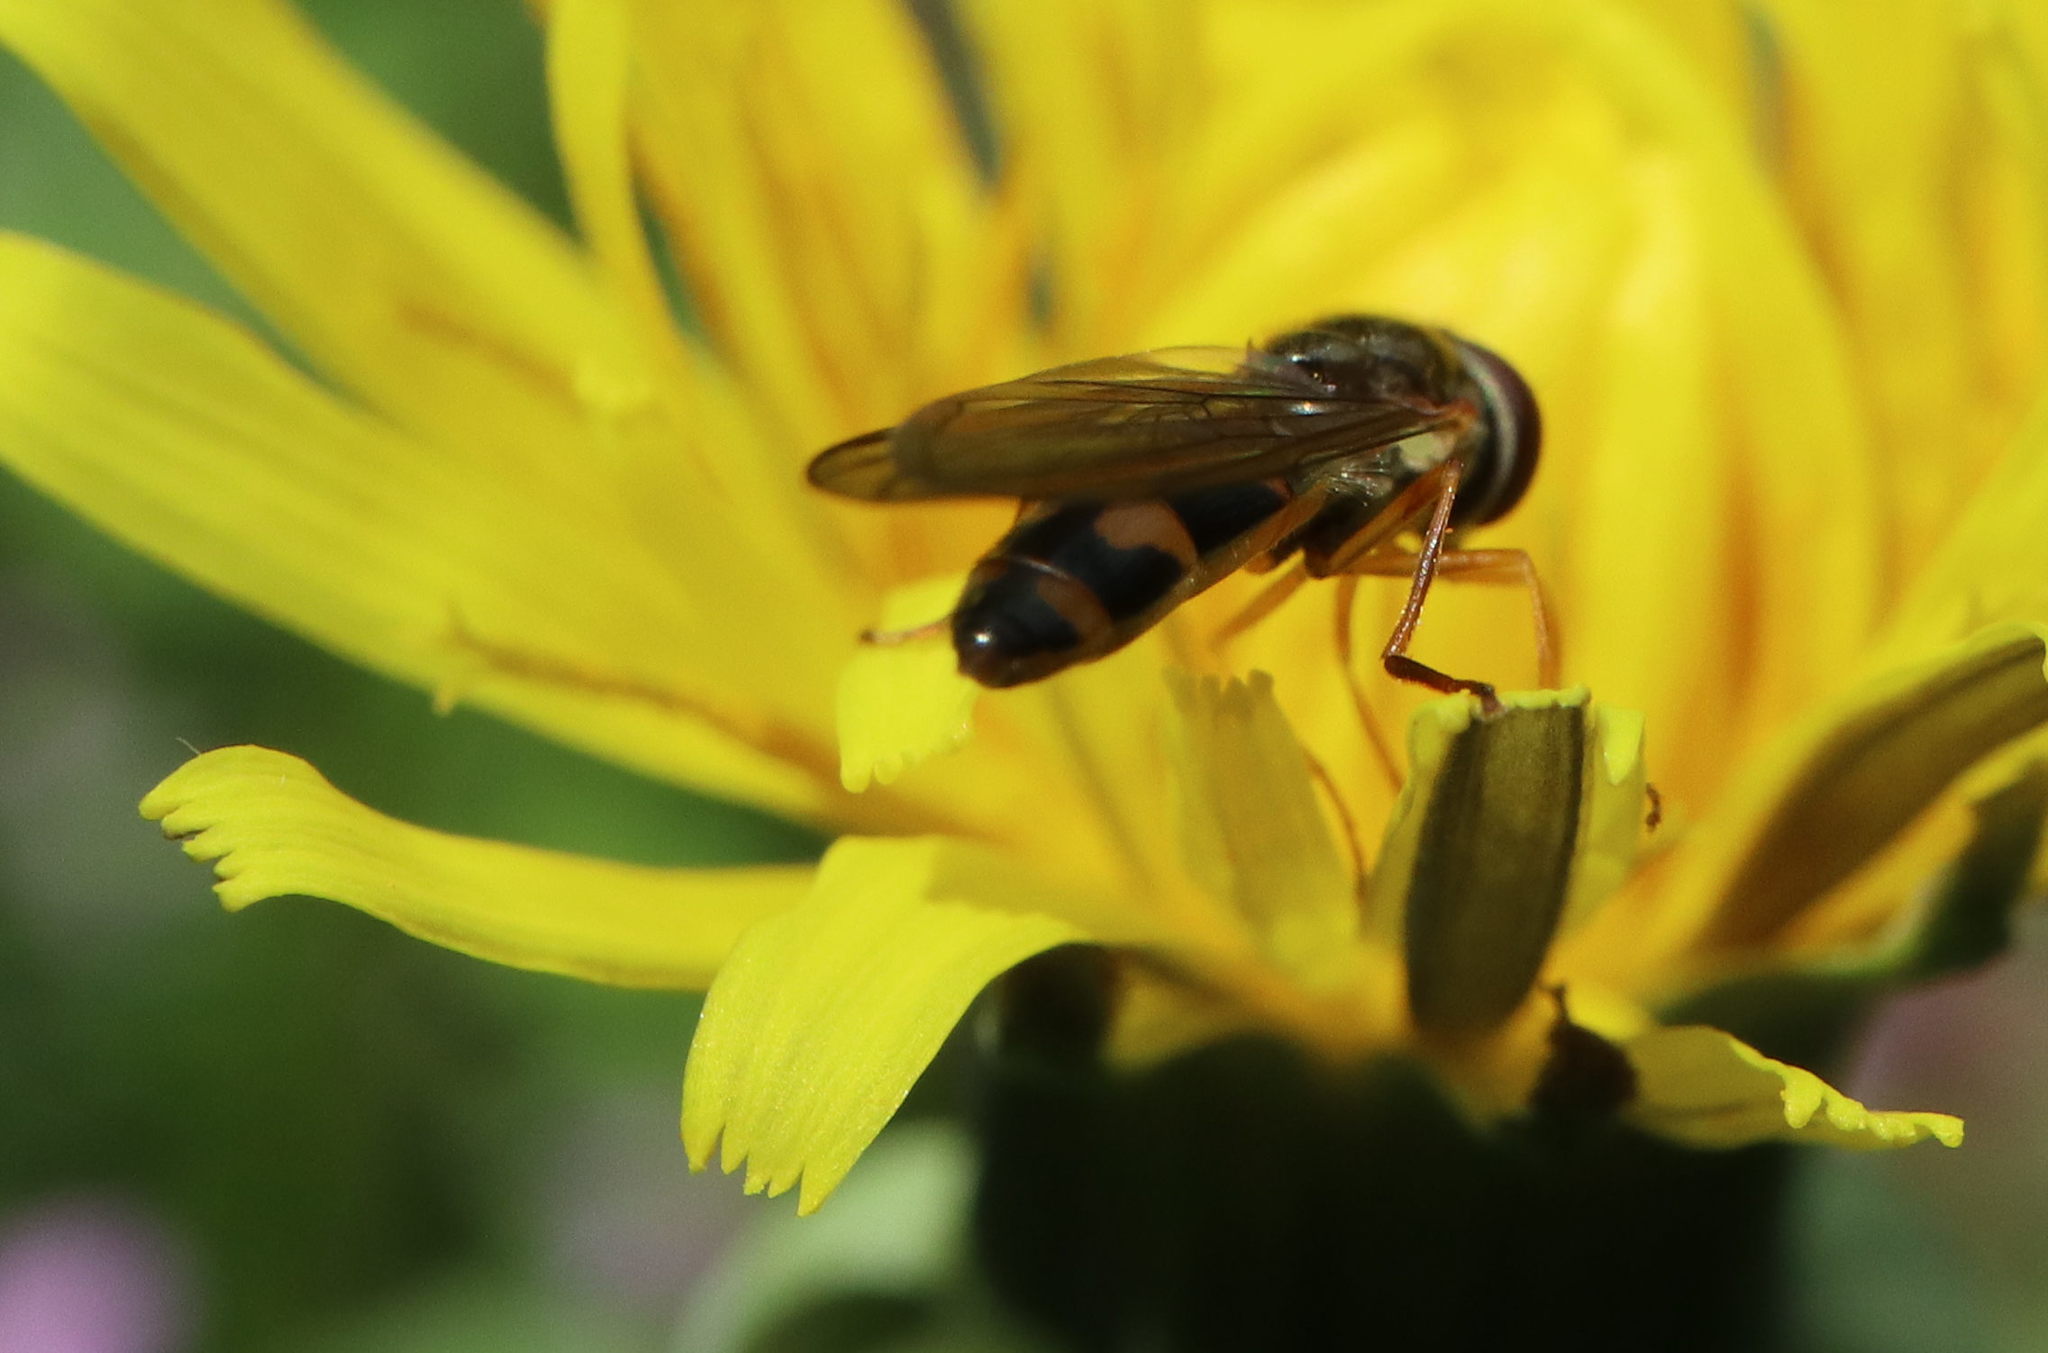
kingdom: Animalia
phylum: Arthropoda
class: Insecta
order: Diptera
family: Syrphidae
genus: Melanostoma
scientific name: Melanostoma scalare
